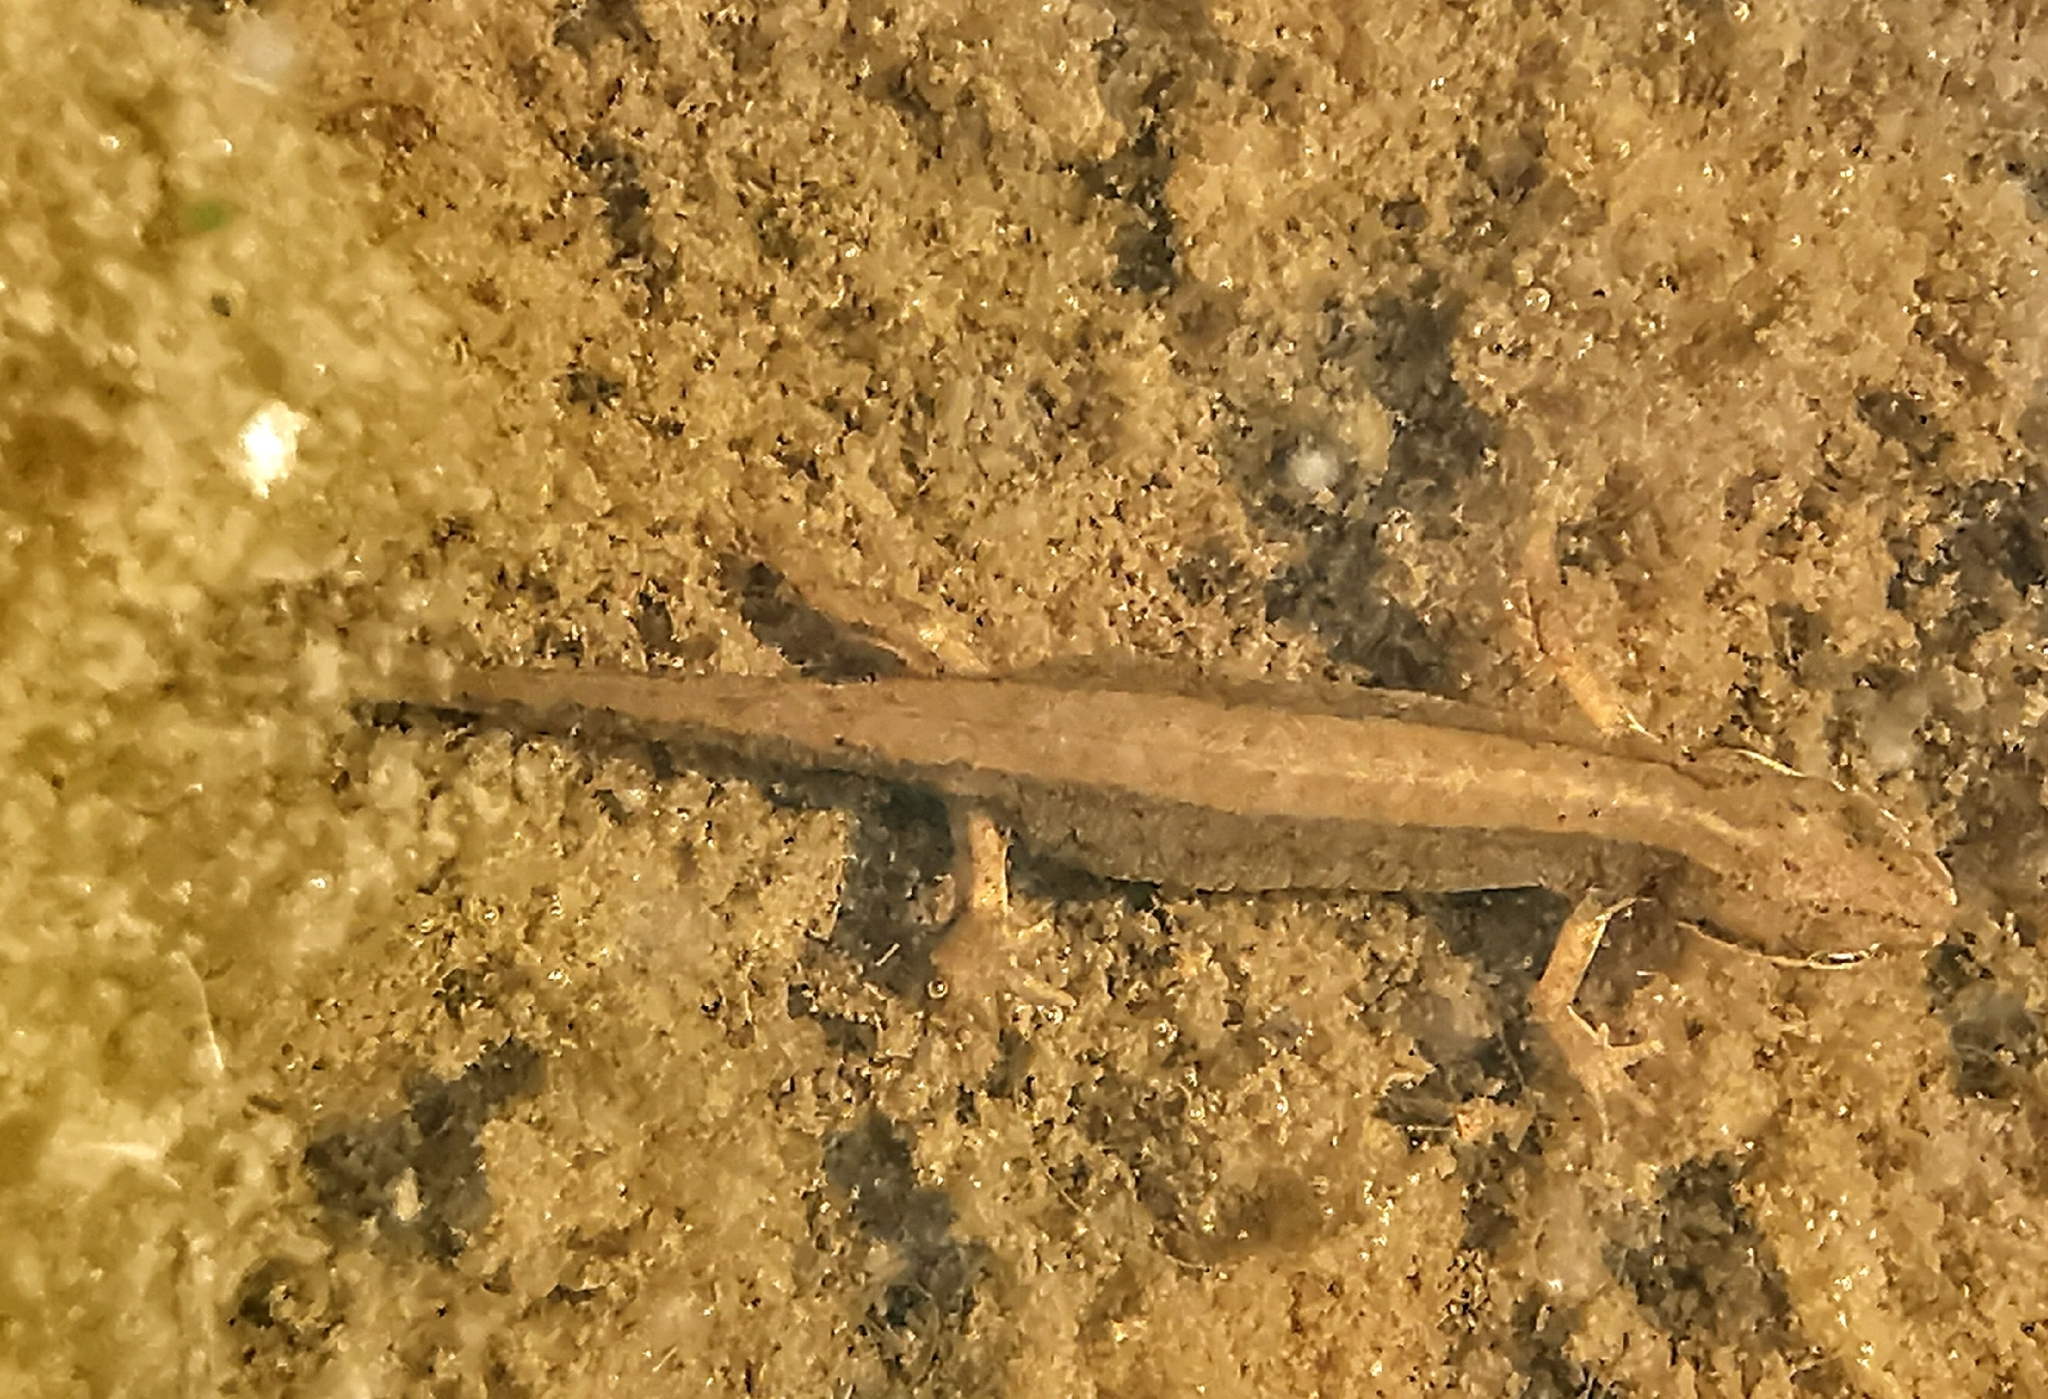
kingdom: Animalia
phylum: Chordata
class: Amphibia
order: Caudata
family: Salamandridae
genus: Lissotriton
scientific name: Lissotriton vulgaris
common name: Smooth newt
